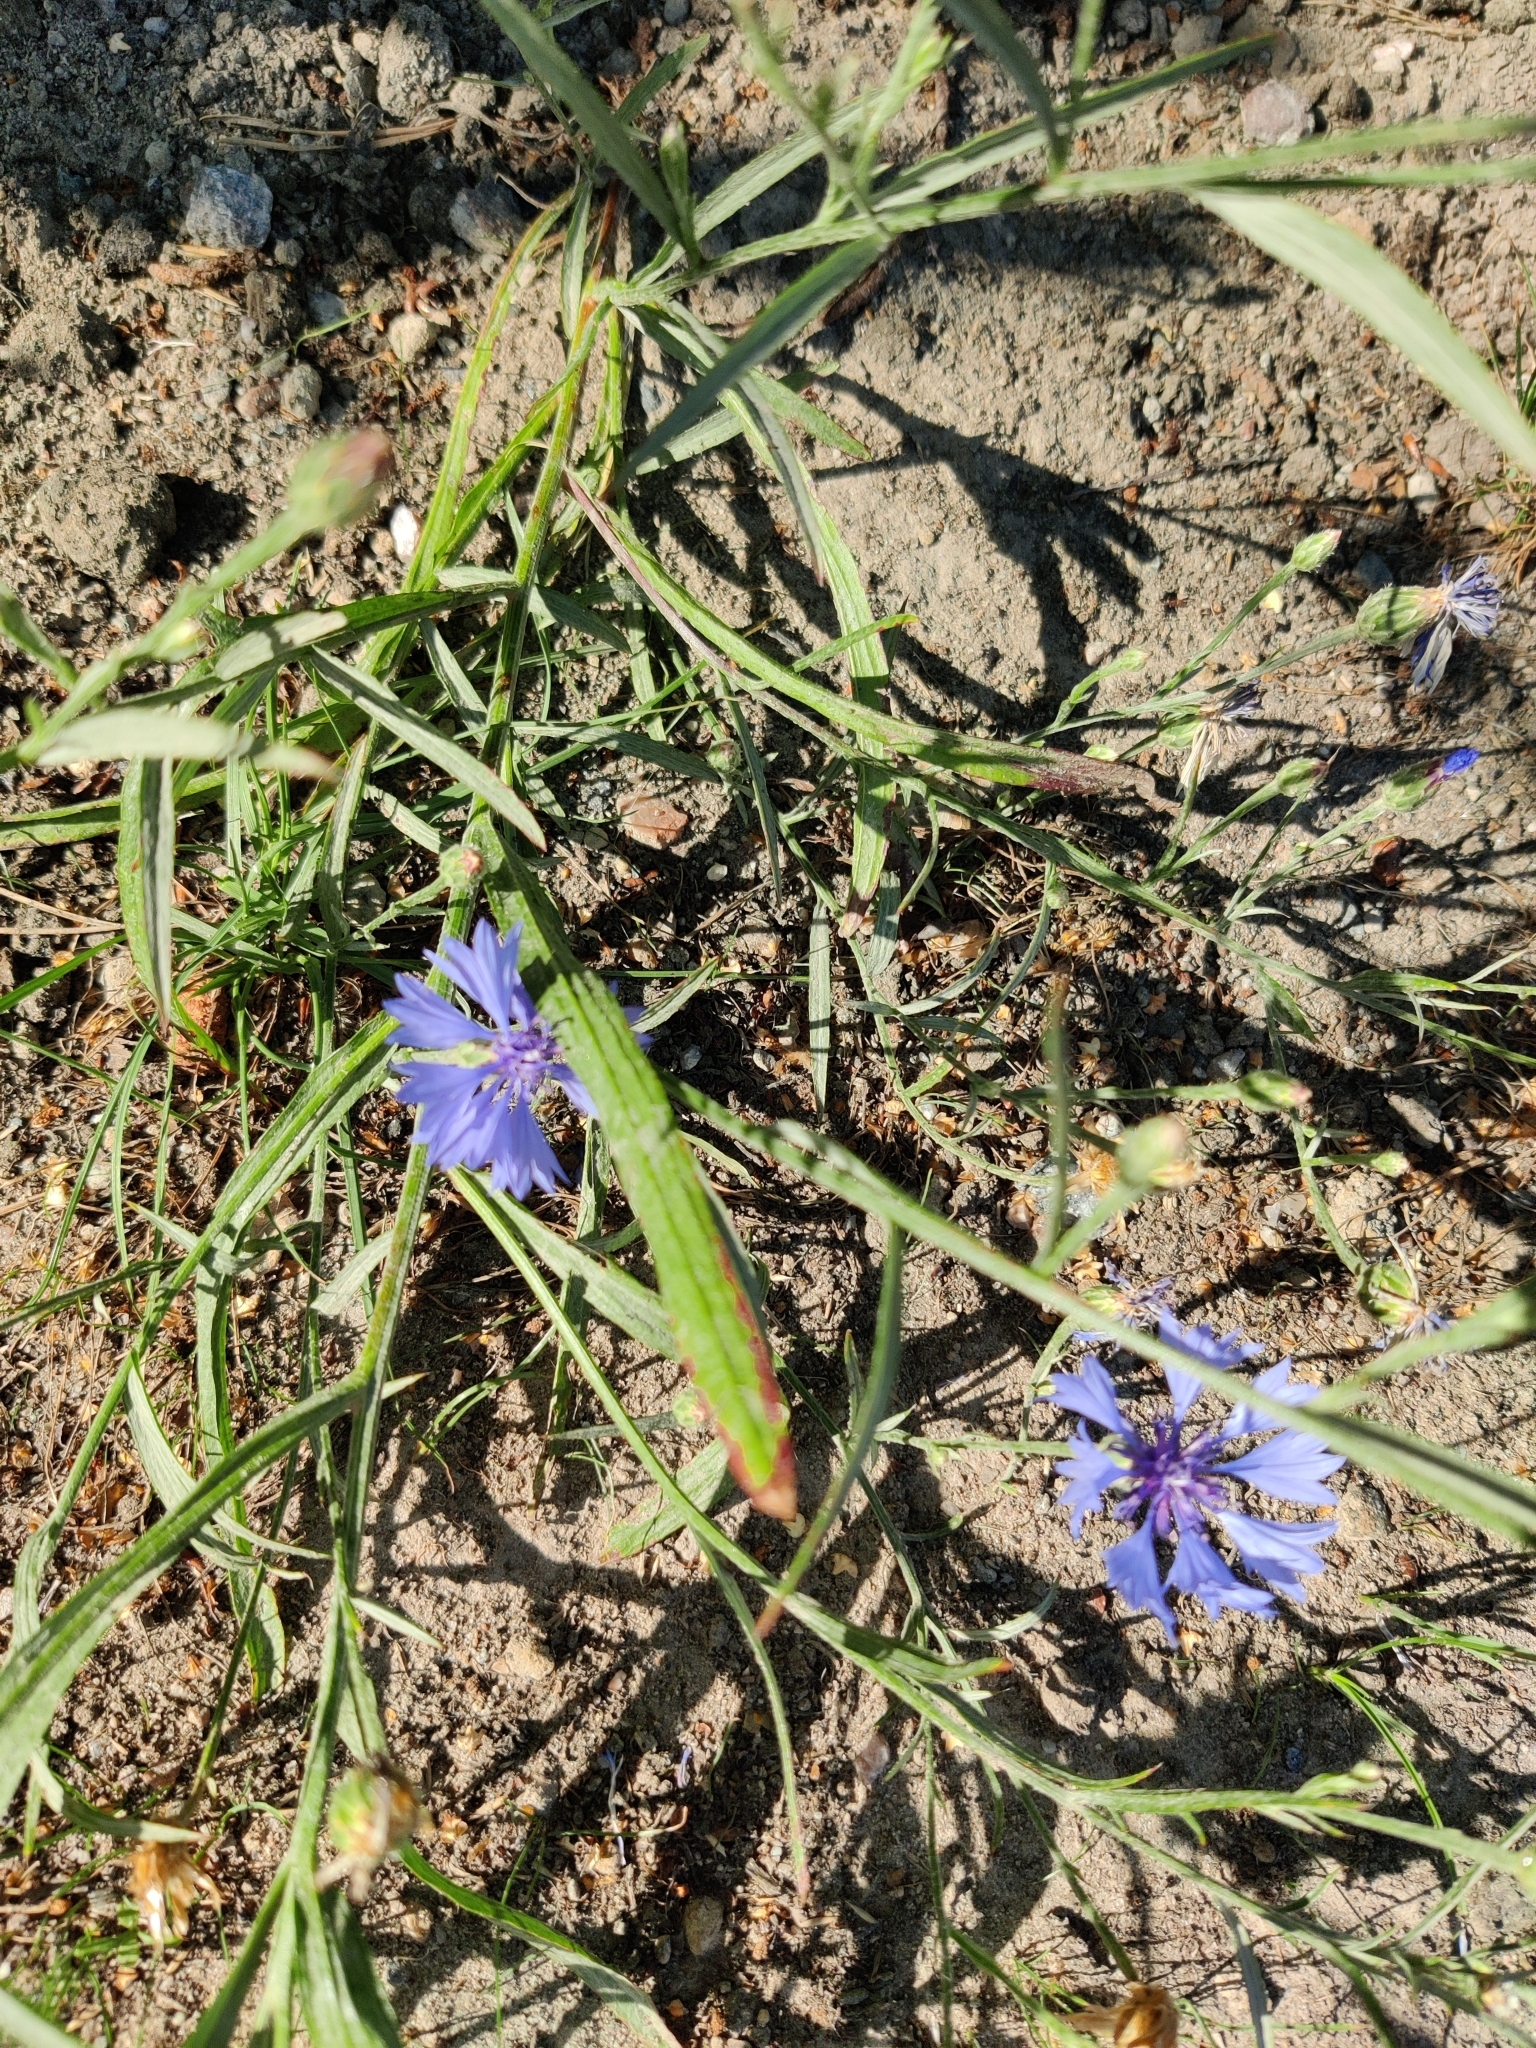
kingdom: Plantae
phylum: Tracheophyta
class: Magnoliopsida
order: Asterales
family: Asteraceae
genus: Centaurea
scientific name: Centaurea cyanus
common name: Cornflower
